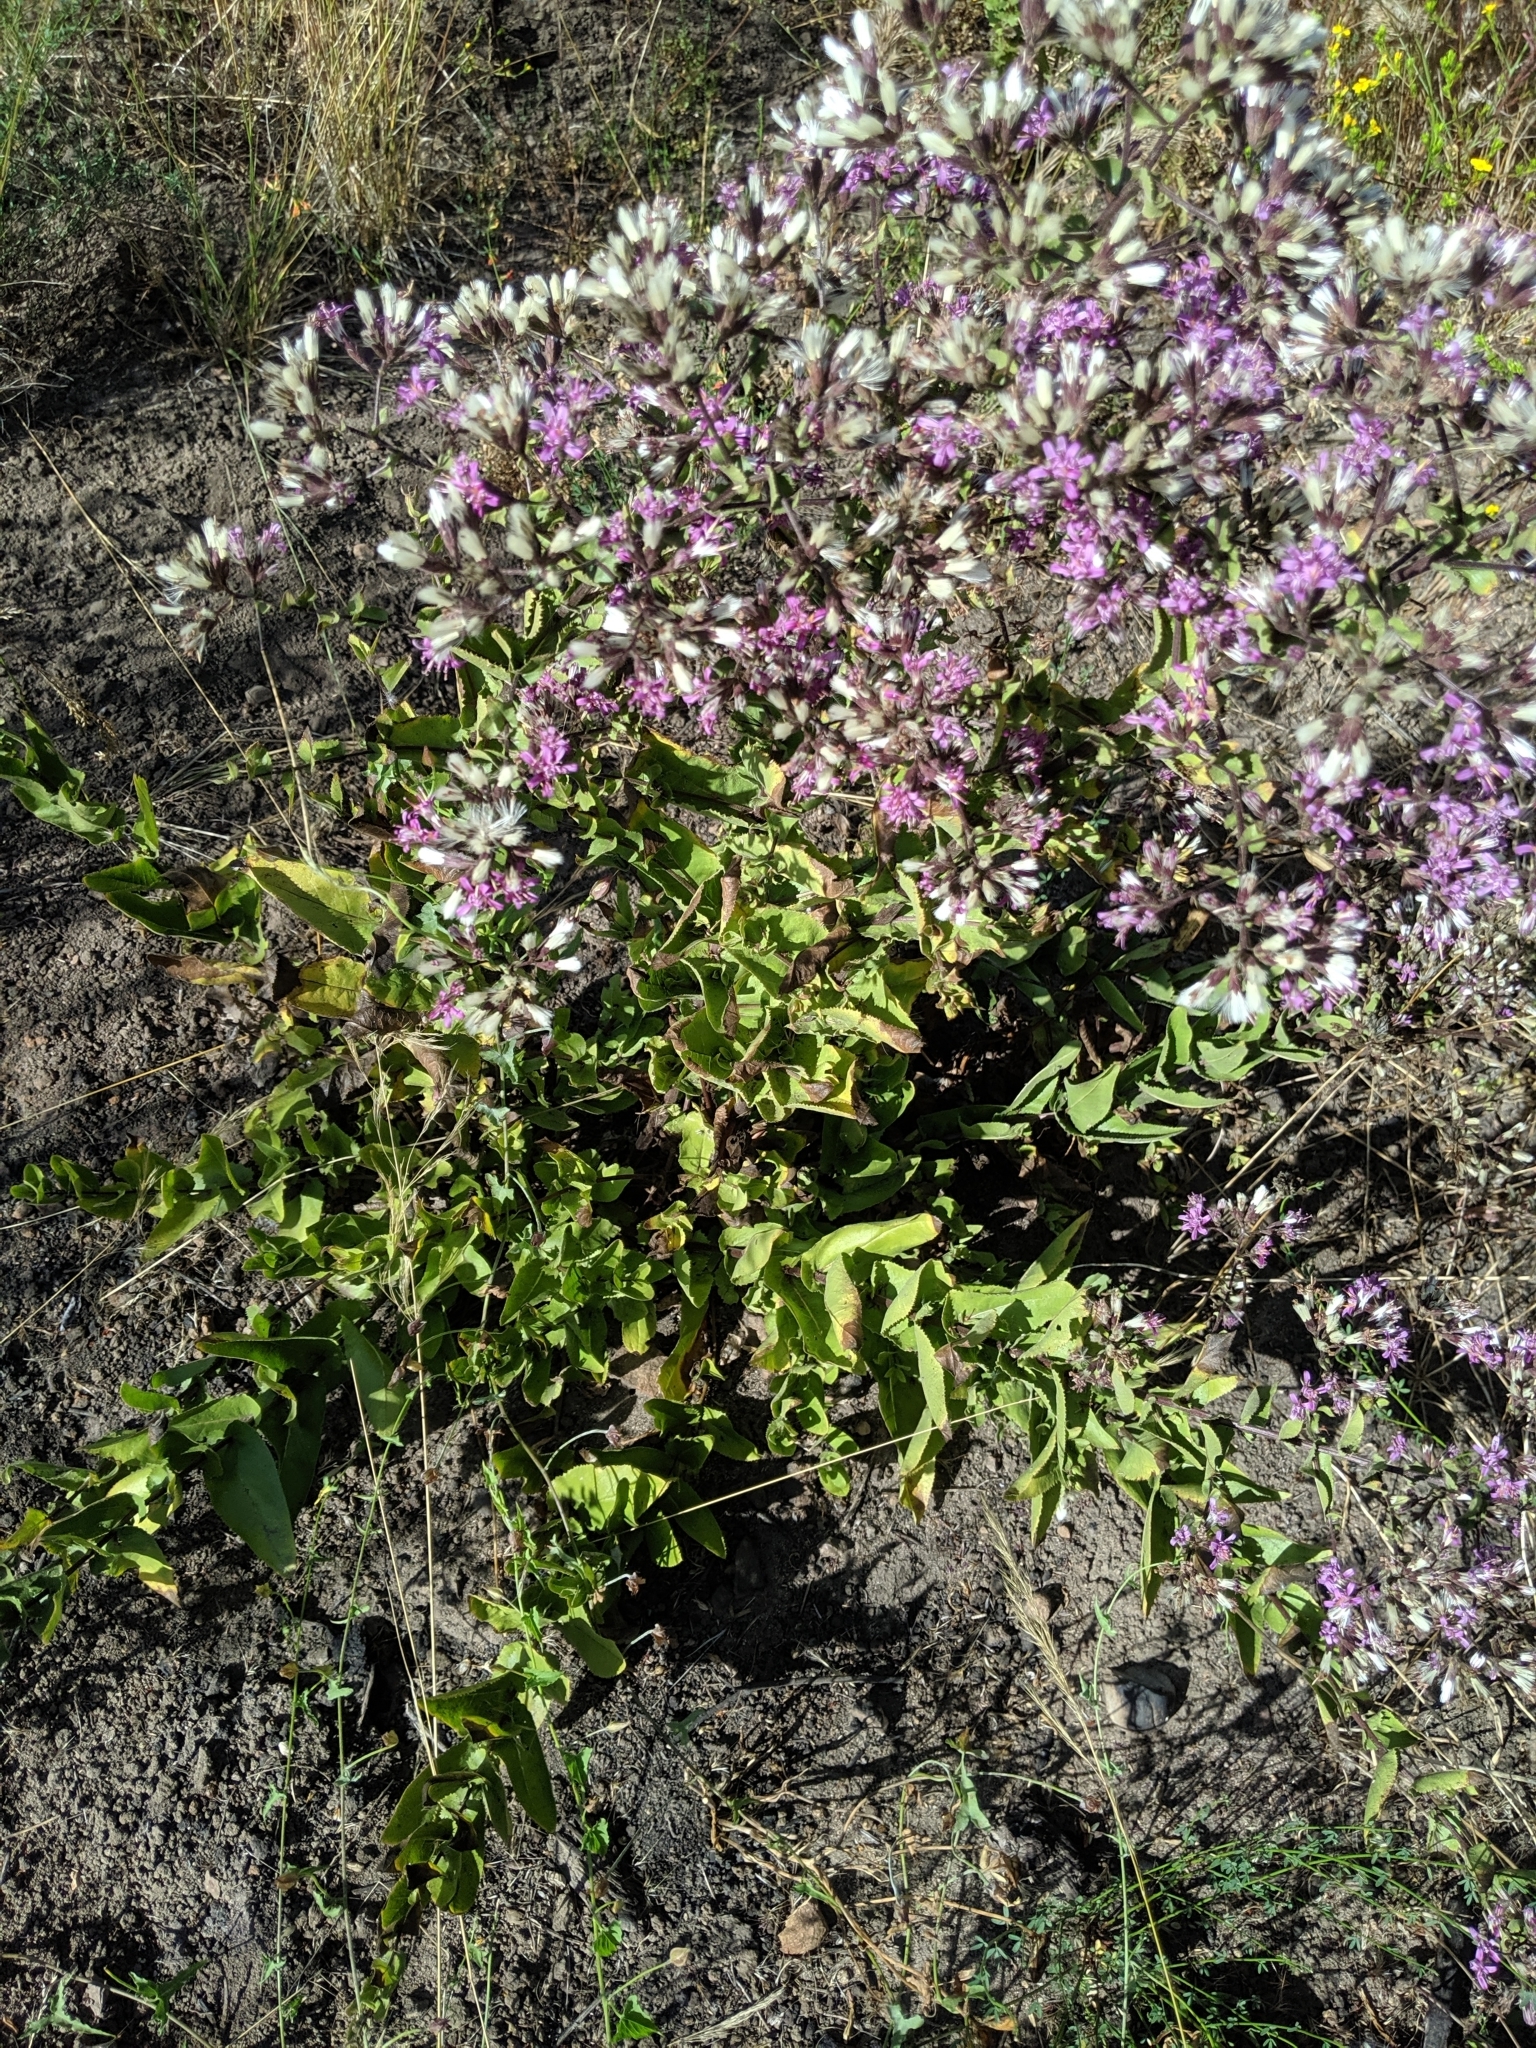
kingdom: Plantae
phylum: Tracheophyta
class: Magnoliopsida
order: Asterales
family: Asteraceae
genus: Acourtia
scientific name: Acourtia microcephala
